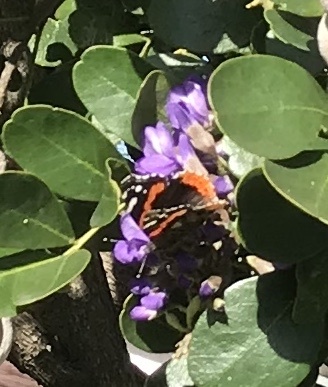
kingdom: Animalia
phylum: Arthropoda
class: Insecta
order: Lepidoptera
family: Nymphalidae
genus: Vanessa
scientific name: Vanessa atalanta
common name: Red admiral
